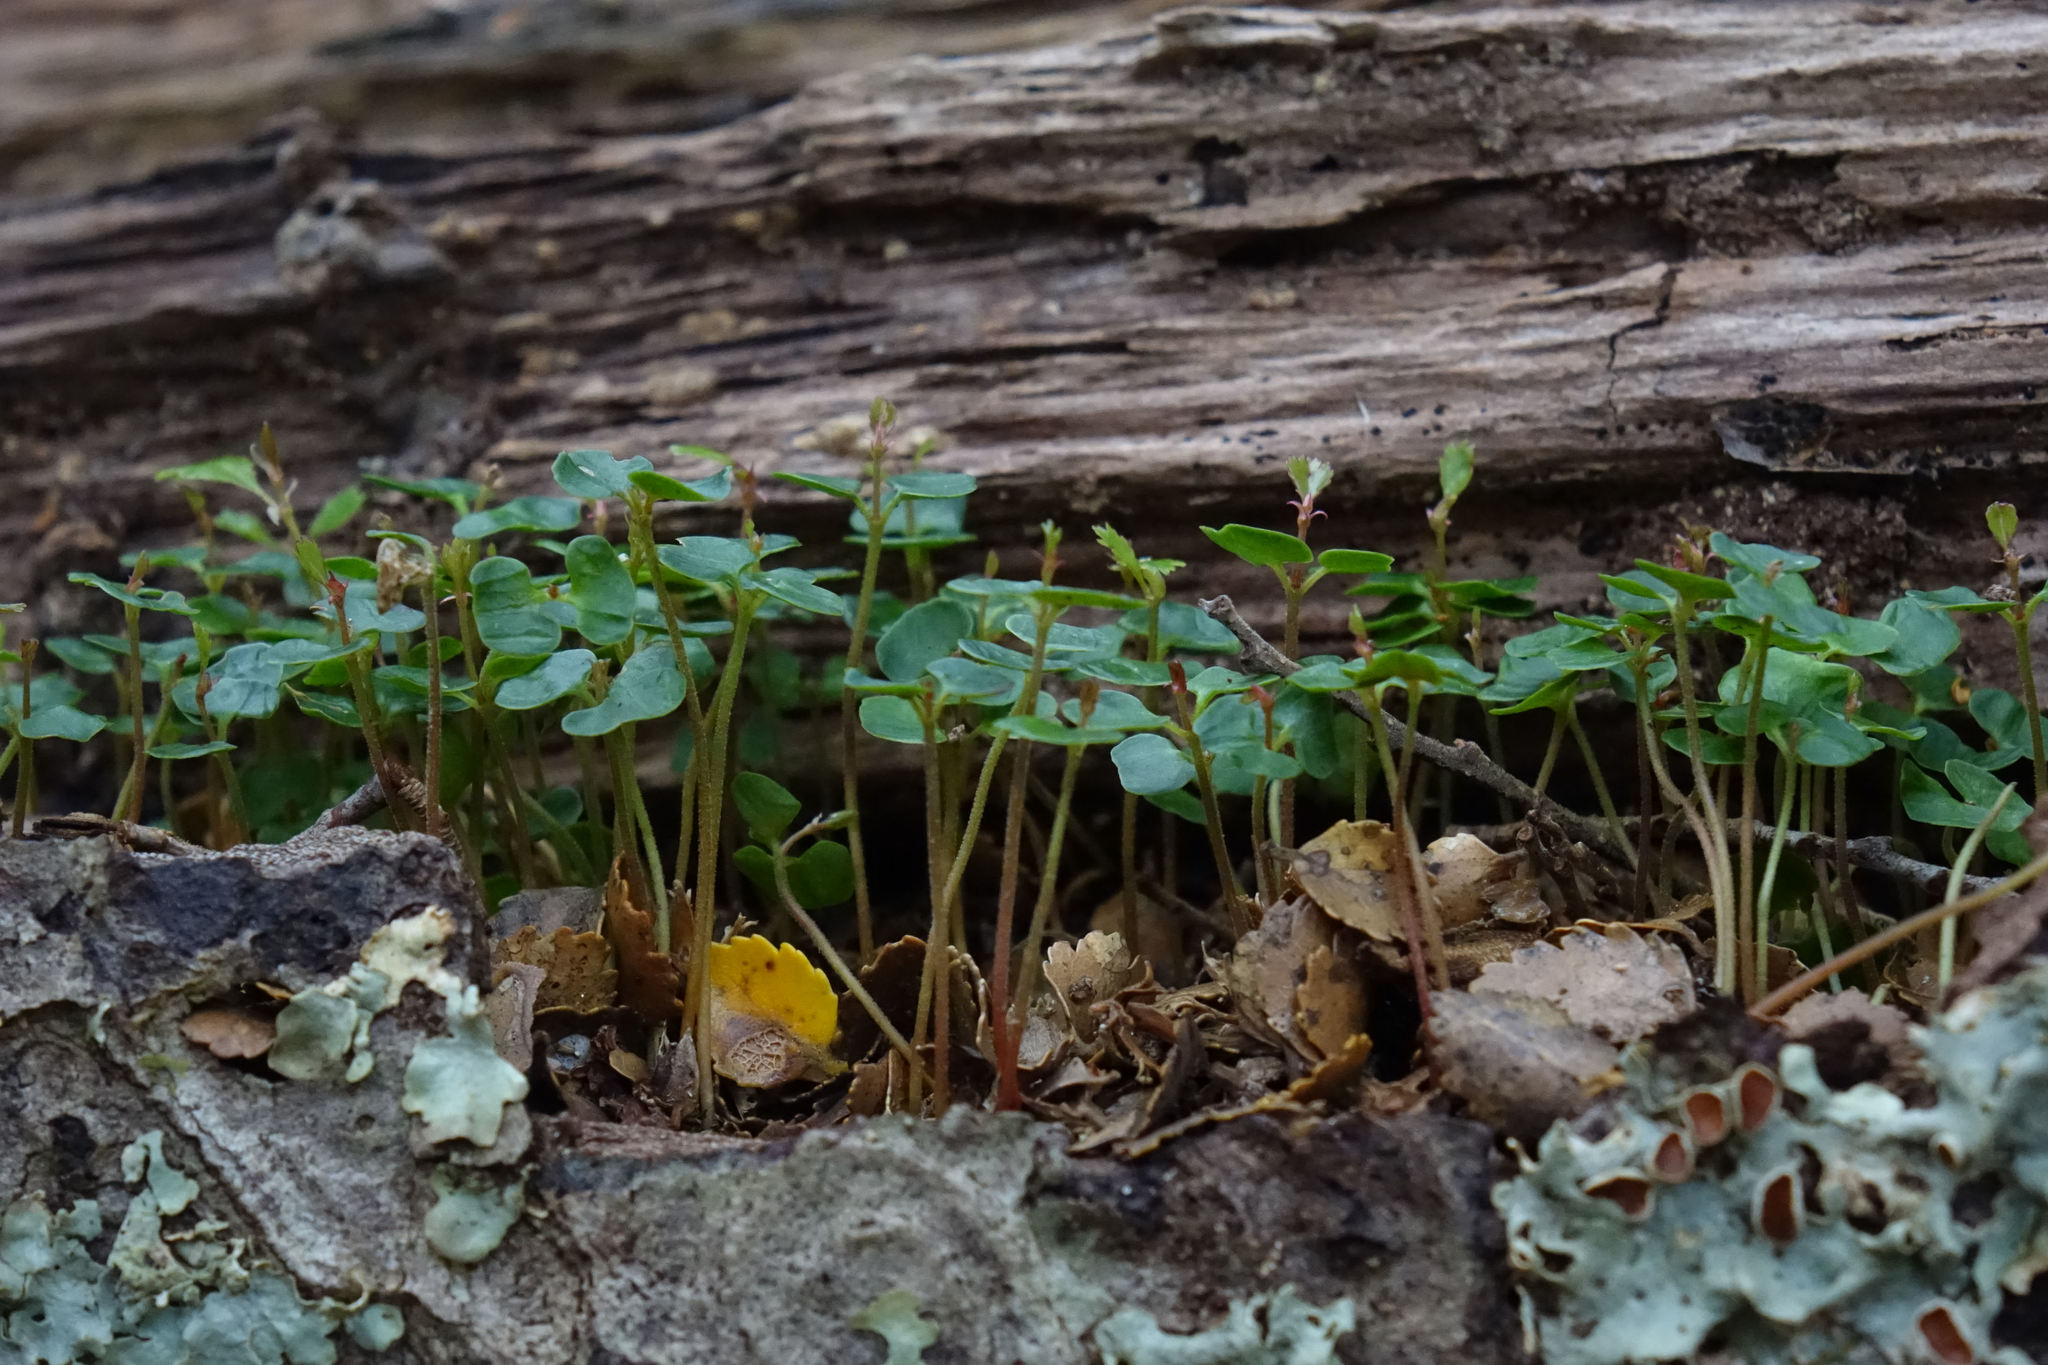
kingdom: Plantae
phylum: Tracheophyta
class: Magnoliopsida
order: Fagales
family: Nothofagaceae
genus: Nothofagus
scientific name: Nothofagus menziesii
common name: Silver beech
